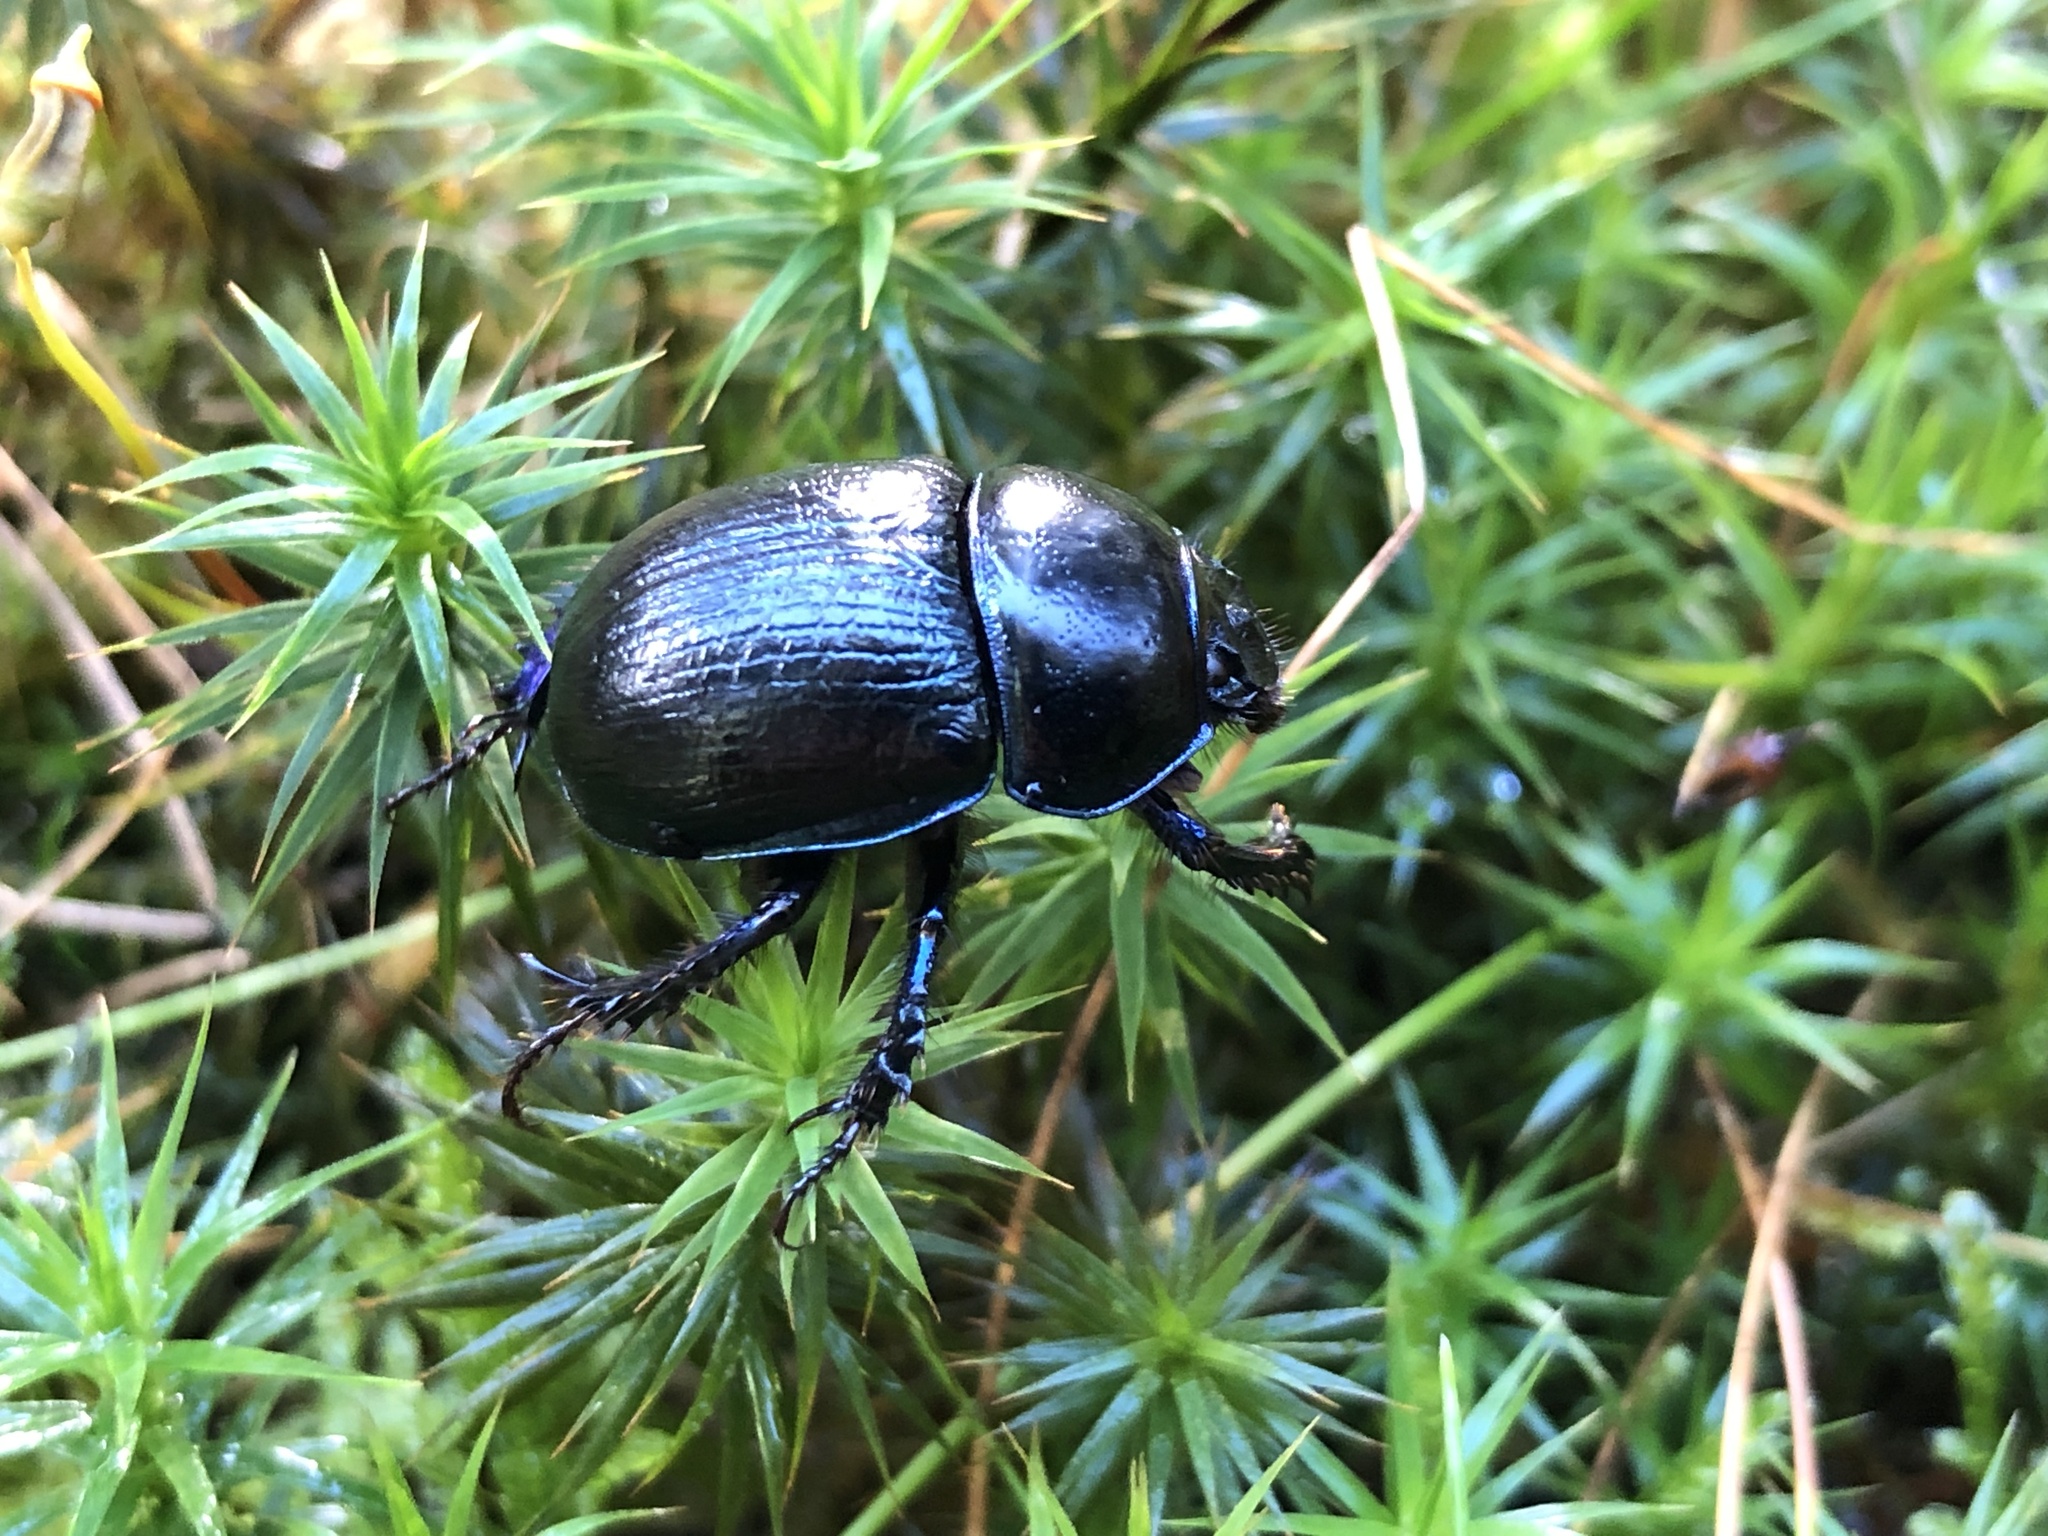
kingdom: Animalia
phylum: Arthropoda
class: Insecta
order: Coleoptera
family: Geotrupidae
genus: Anoplotrupes
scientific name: Anoplotrupes stercorosus
